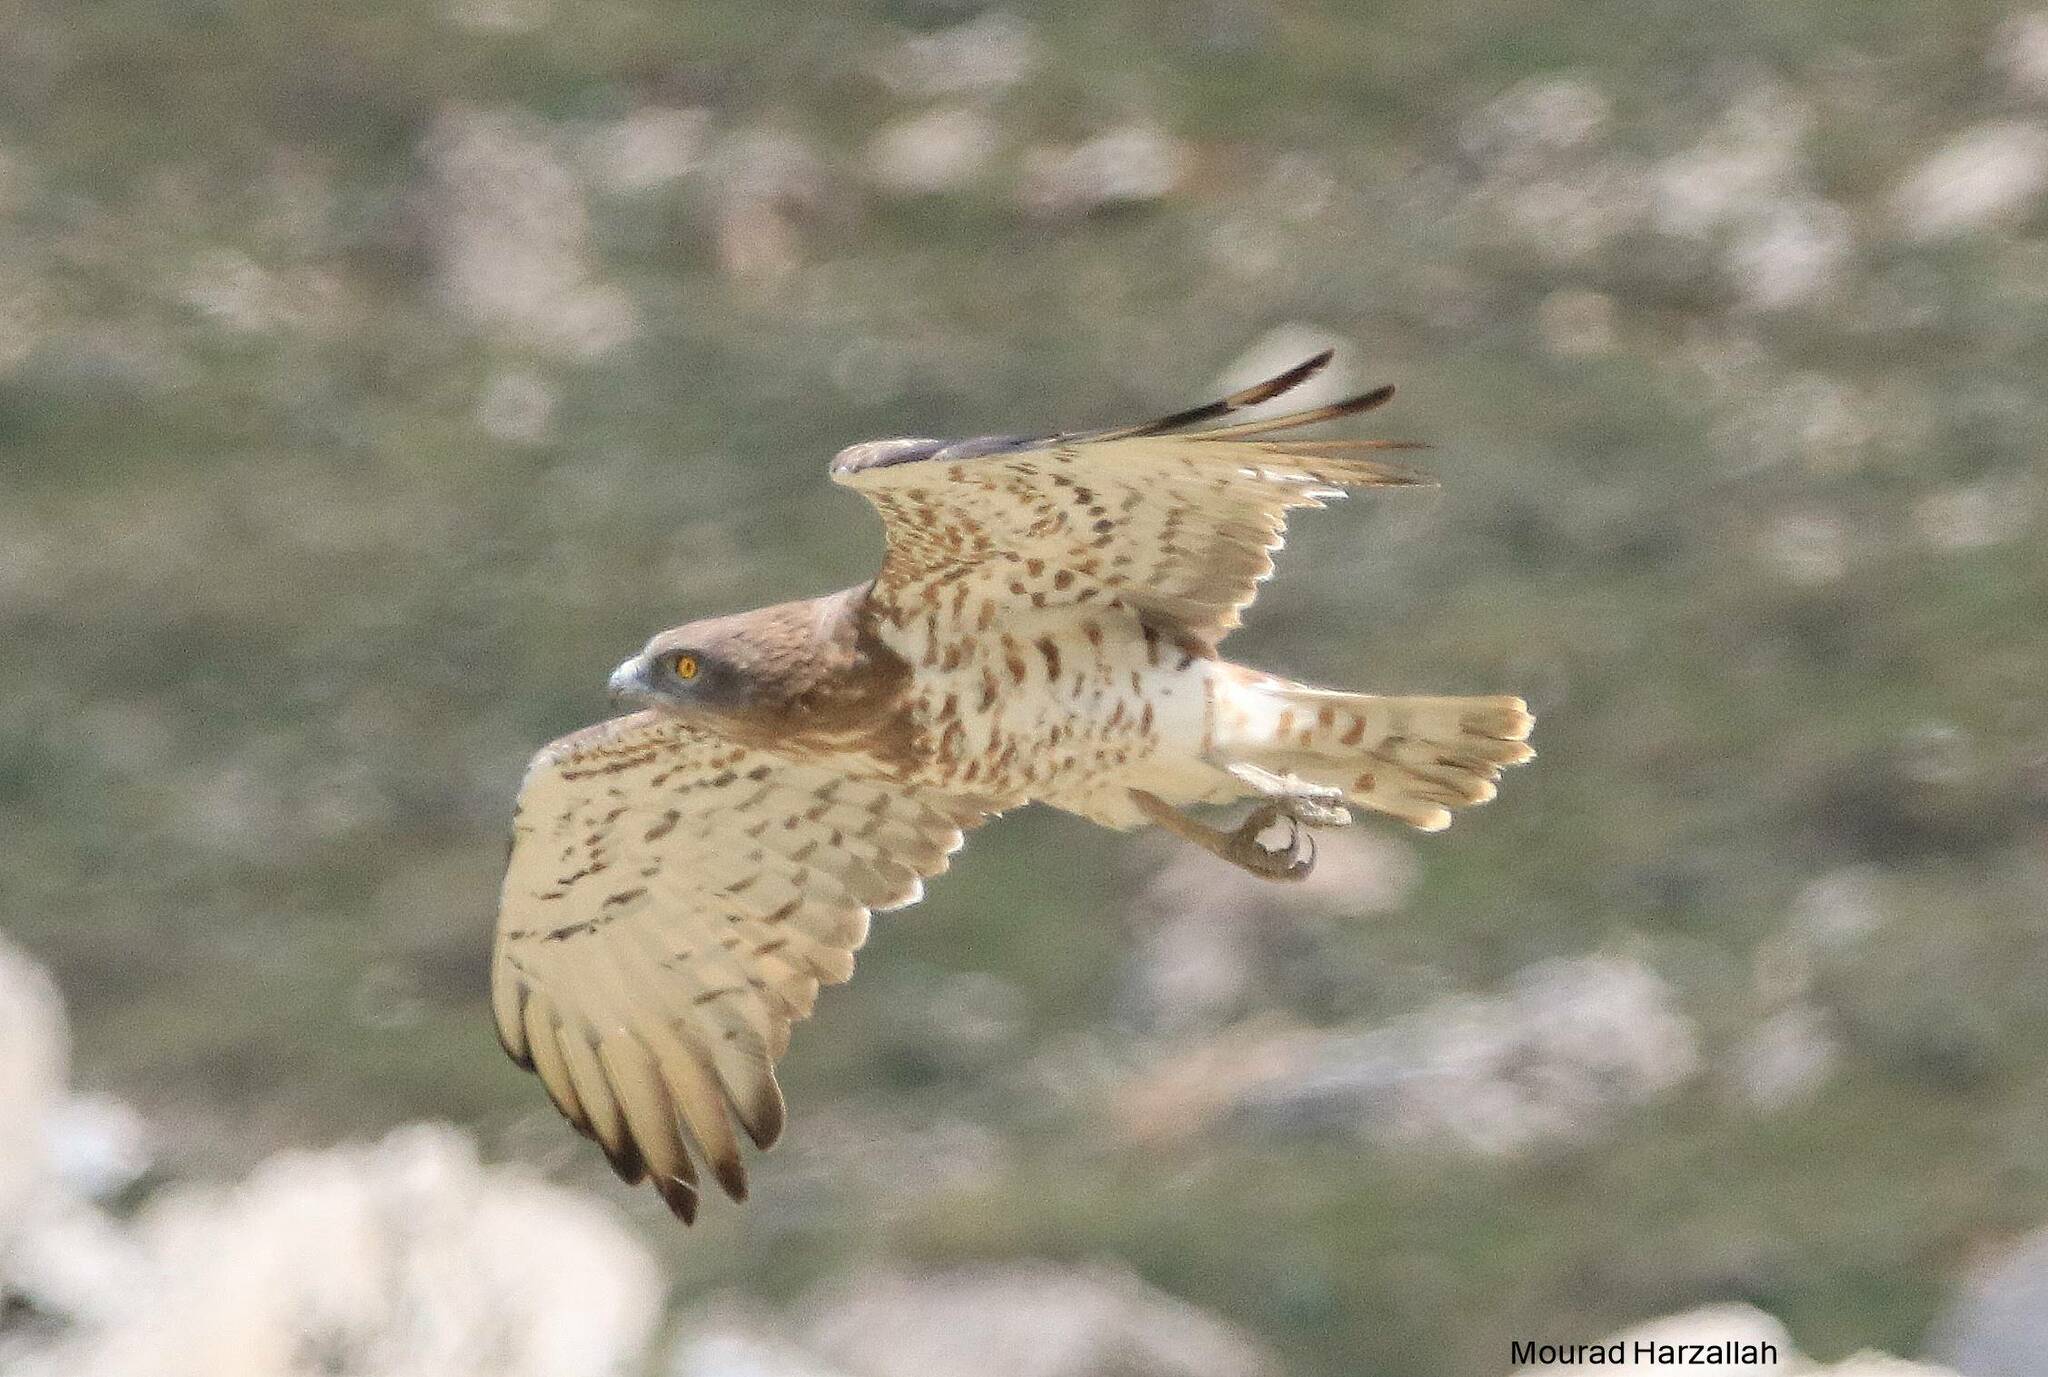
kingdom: Animalia
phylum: Chordata
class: Aves
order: Accipitriformes
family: Accipitridae
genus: Circaetus
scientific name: Circaetus gallicus
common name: Short-toed snake eagle
